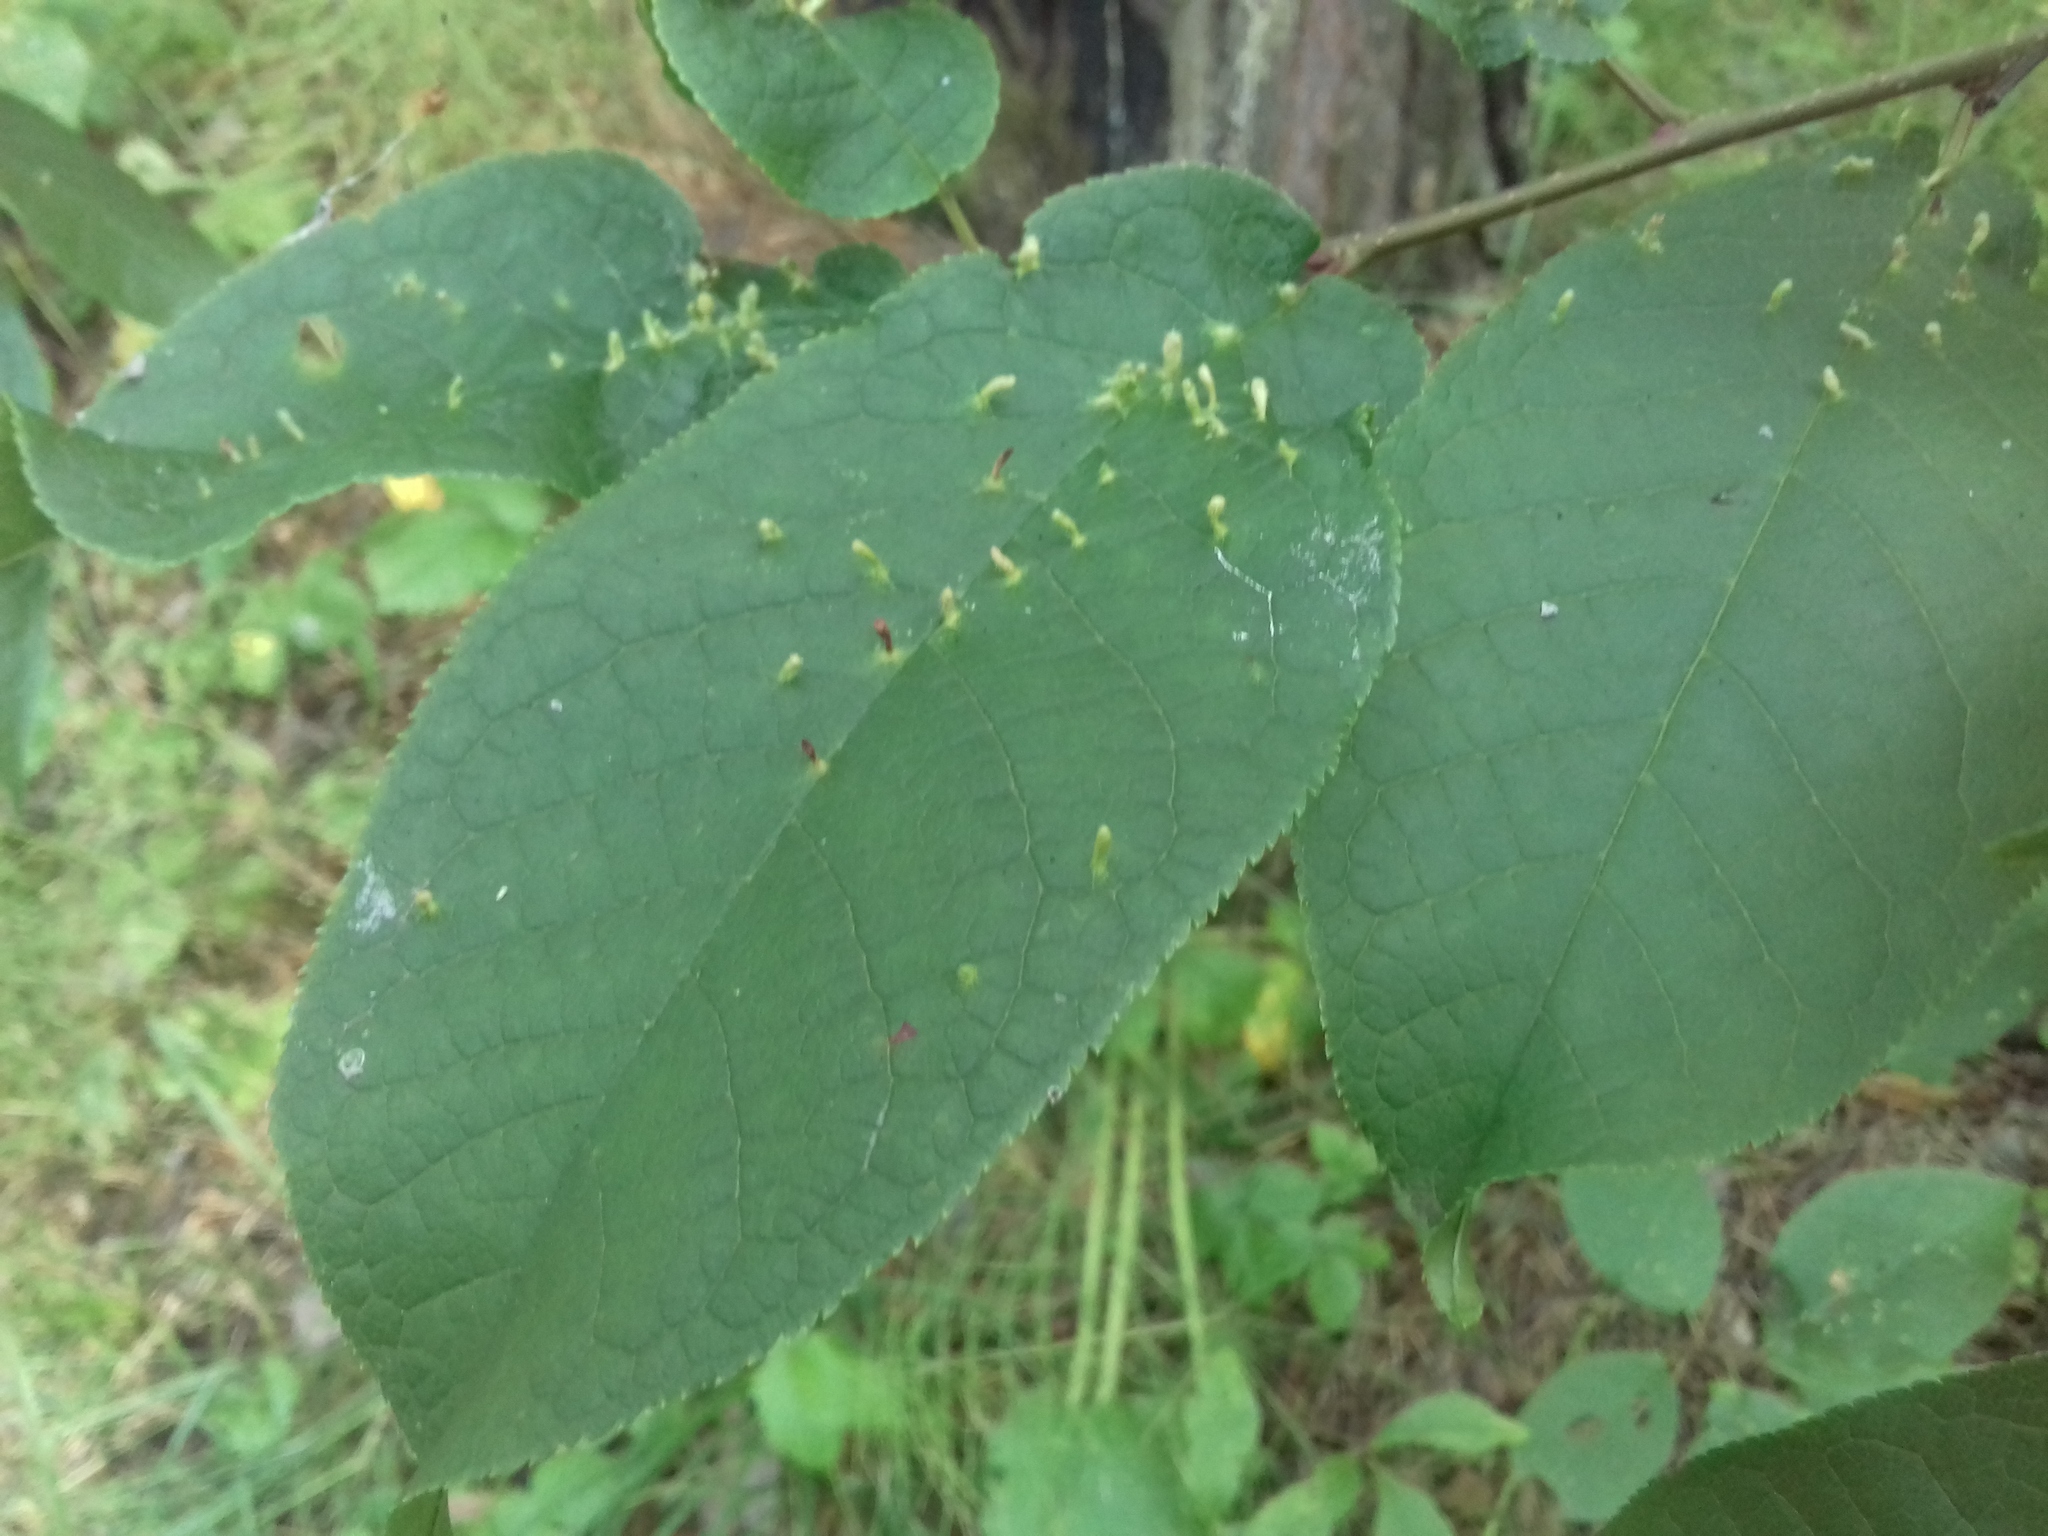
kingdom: Animalia
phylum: Arthropoda
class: Arachnida
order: Trombidiformes
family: Eriophyidae
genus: Phyllocoptes
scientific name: Phyllocoptes eupadi
